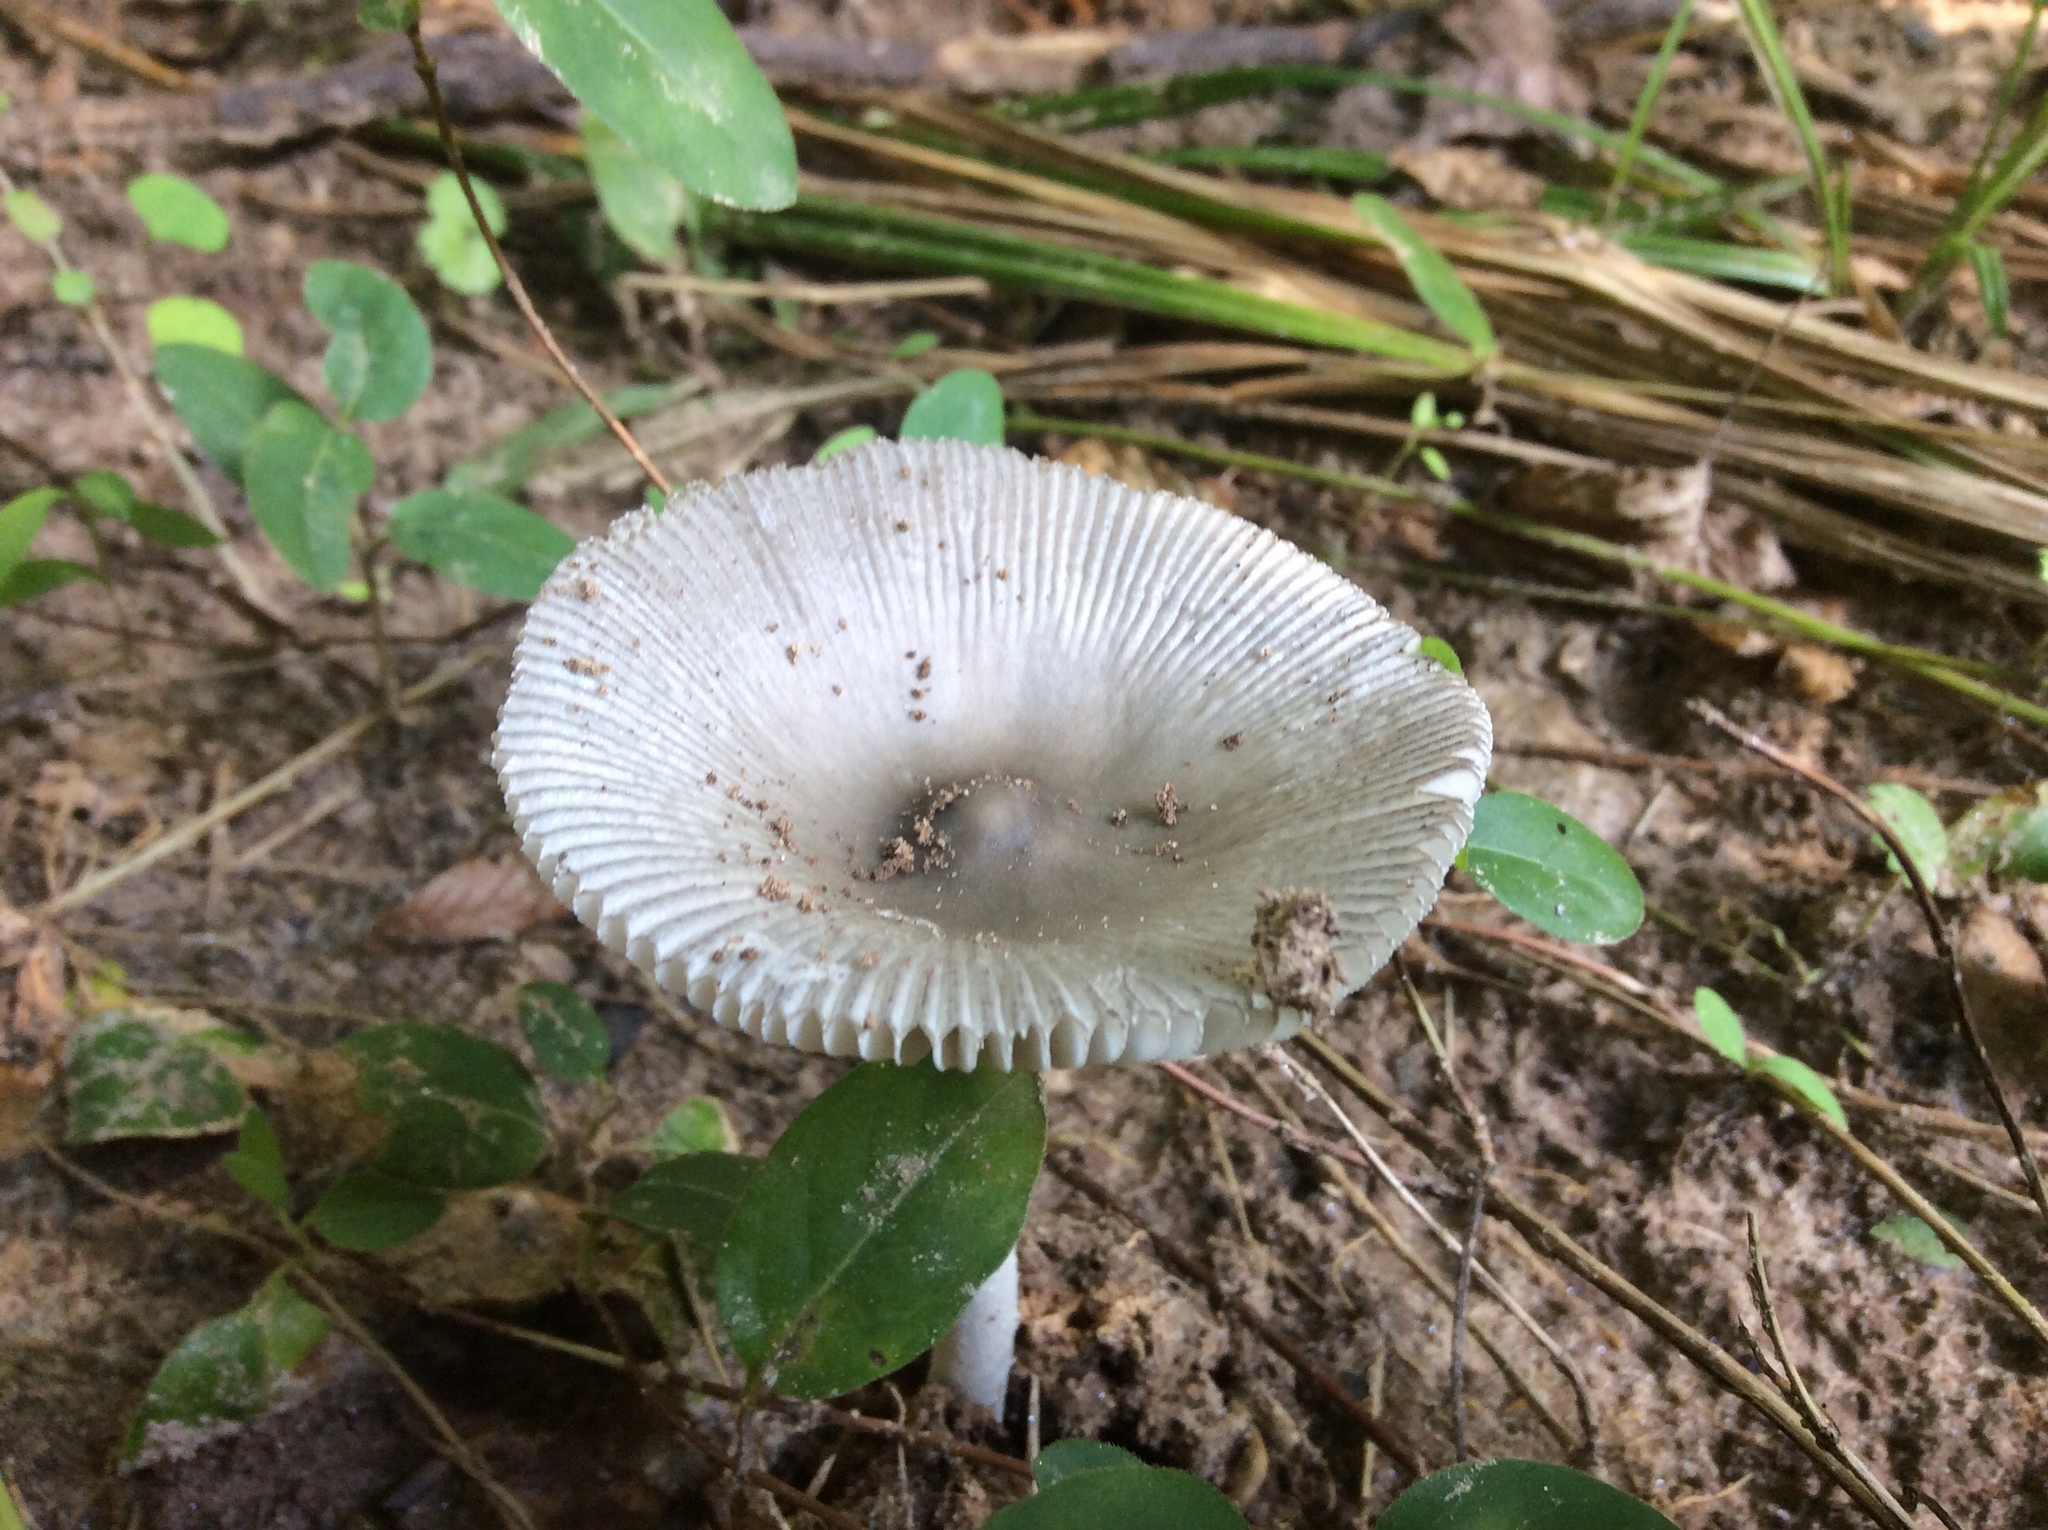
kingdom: Fungi
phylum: Basidiomycota
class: Agaricomycetes
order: Agaricales
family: Amanitaceae
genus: Amanita
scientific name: Amanita vaginata
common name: Grisette
